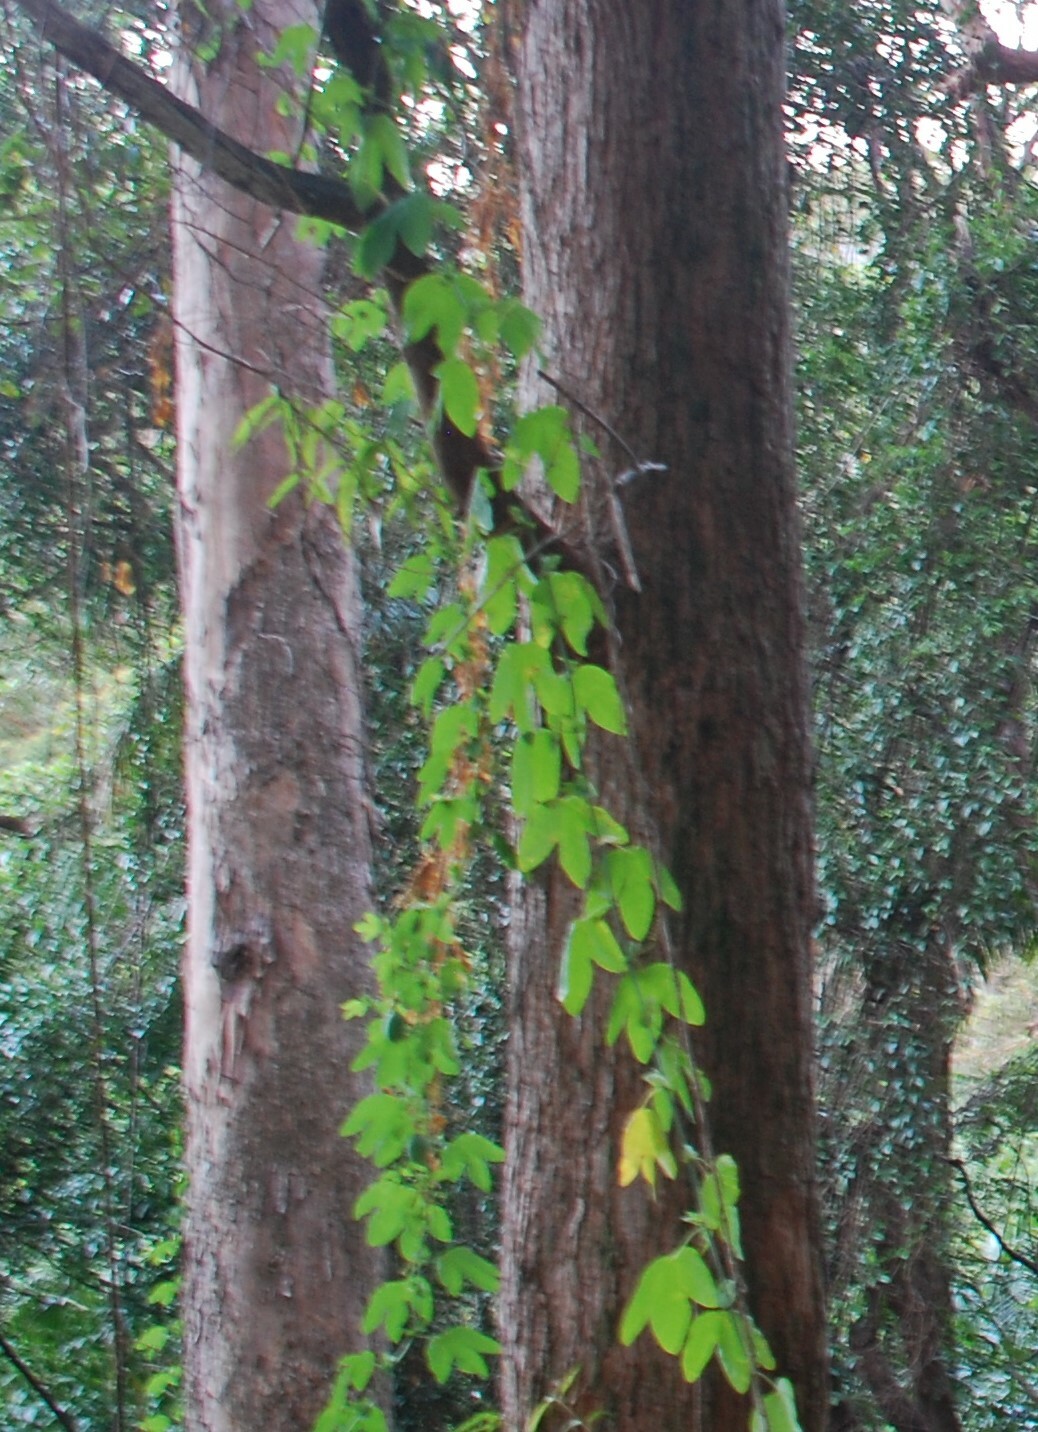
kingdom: Plantae
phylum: Tracheophyta
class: Magnoliopsida
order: Malpighiales
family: Passifloraceae
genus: Passiflora
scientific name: Passiflora subpeltata
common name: White passionflower
